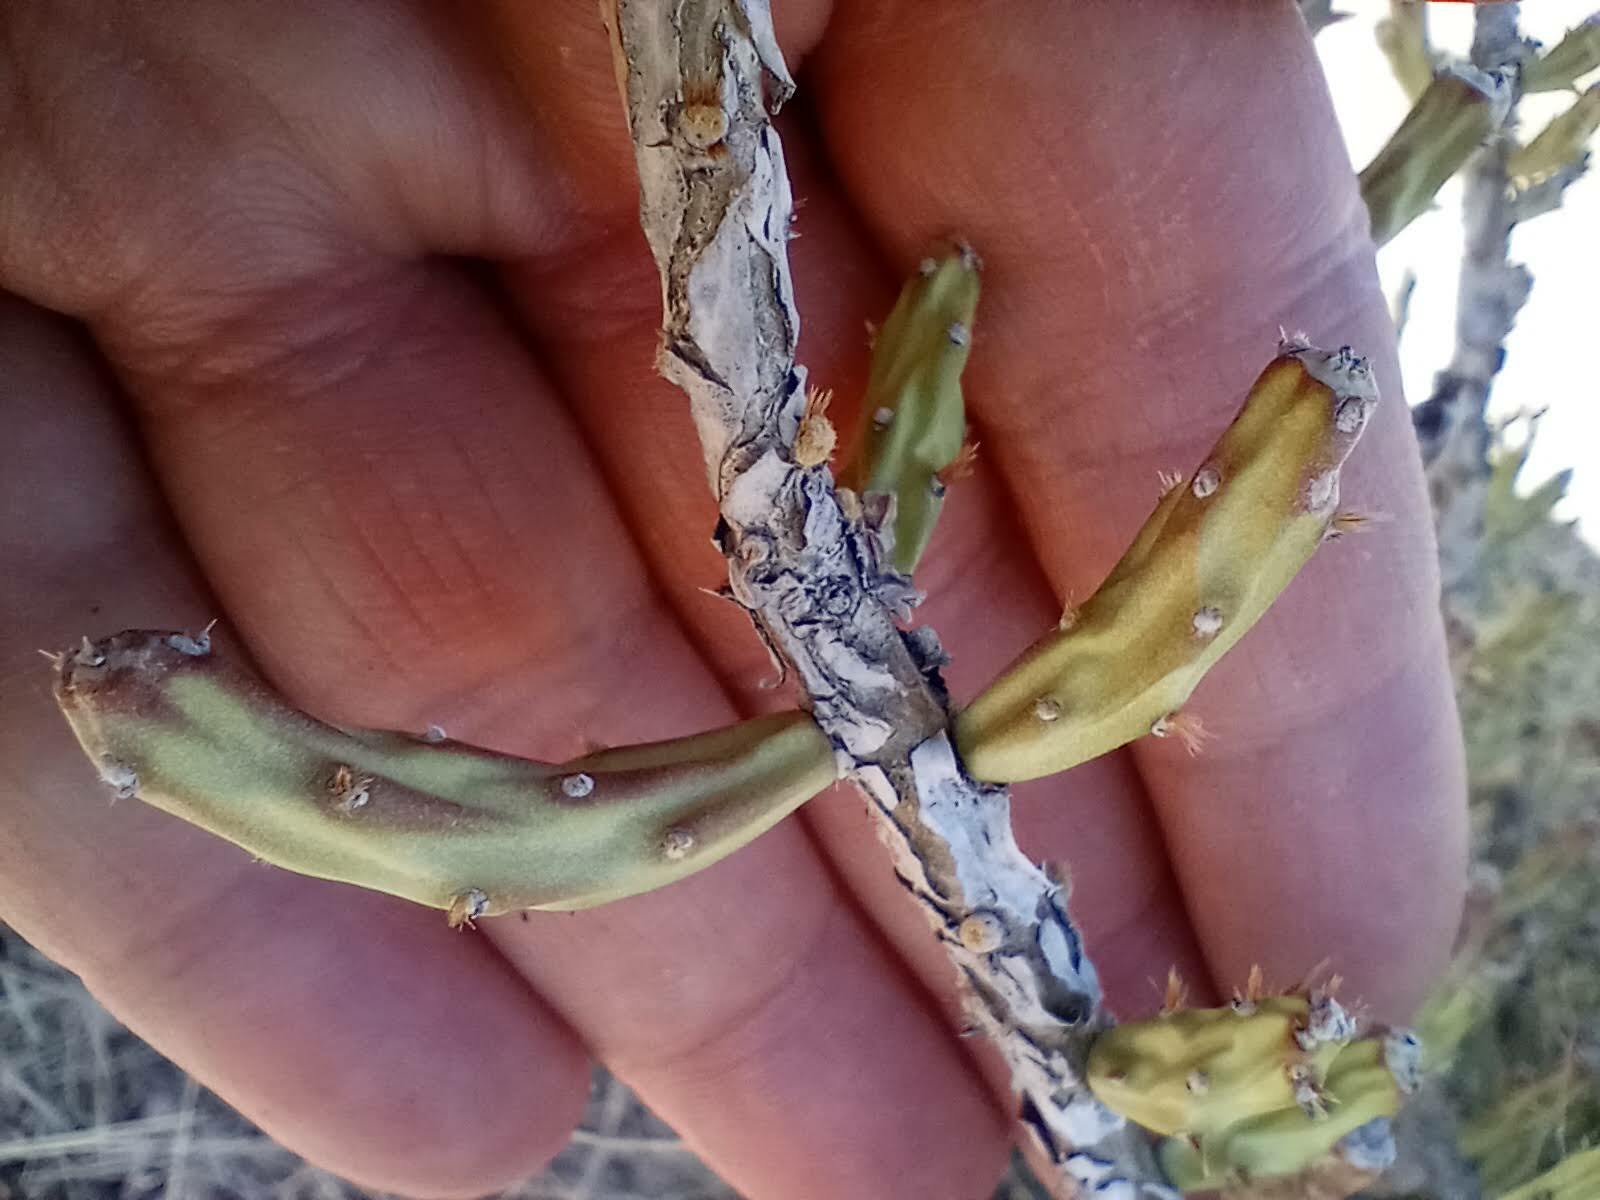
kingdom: Plantae
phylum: Tracheophyta
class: Magnoliopsida
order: Caryophyllales
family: Cactaceae
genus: Cylindropuntia
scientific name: Cylindropuntia leptocaulis
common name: Christmas cactus
